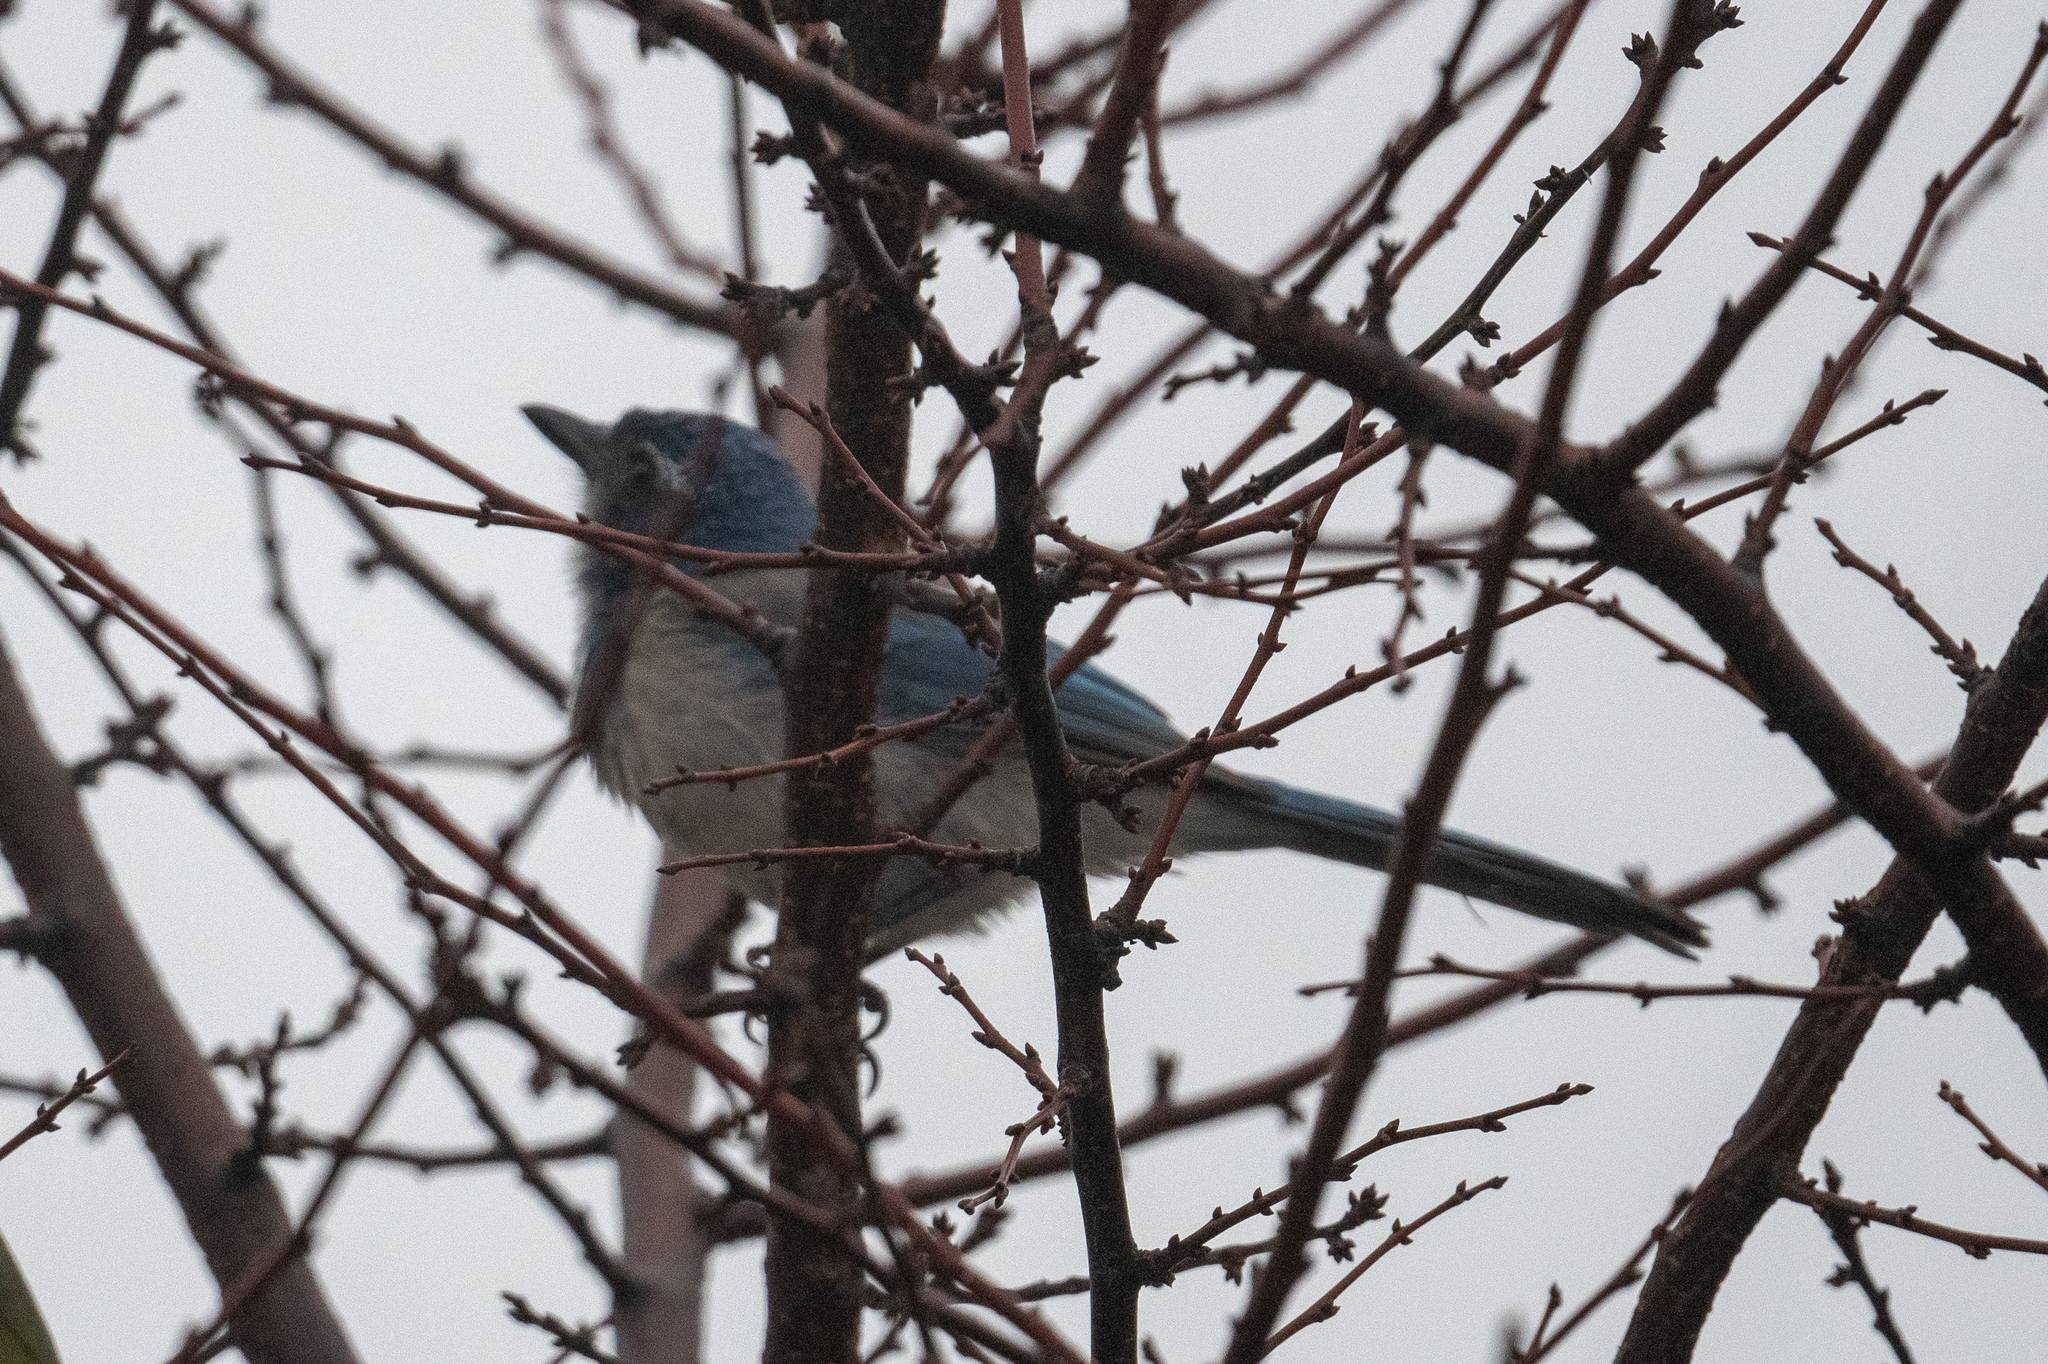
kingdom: Animalia
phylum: Chordata
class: Aves
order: Passeriformes
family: Corvidae
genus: Aphelocoma
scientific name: Aphelocoma californica
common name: California scrub-jay
